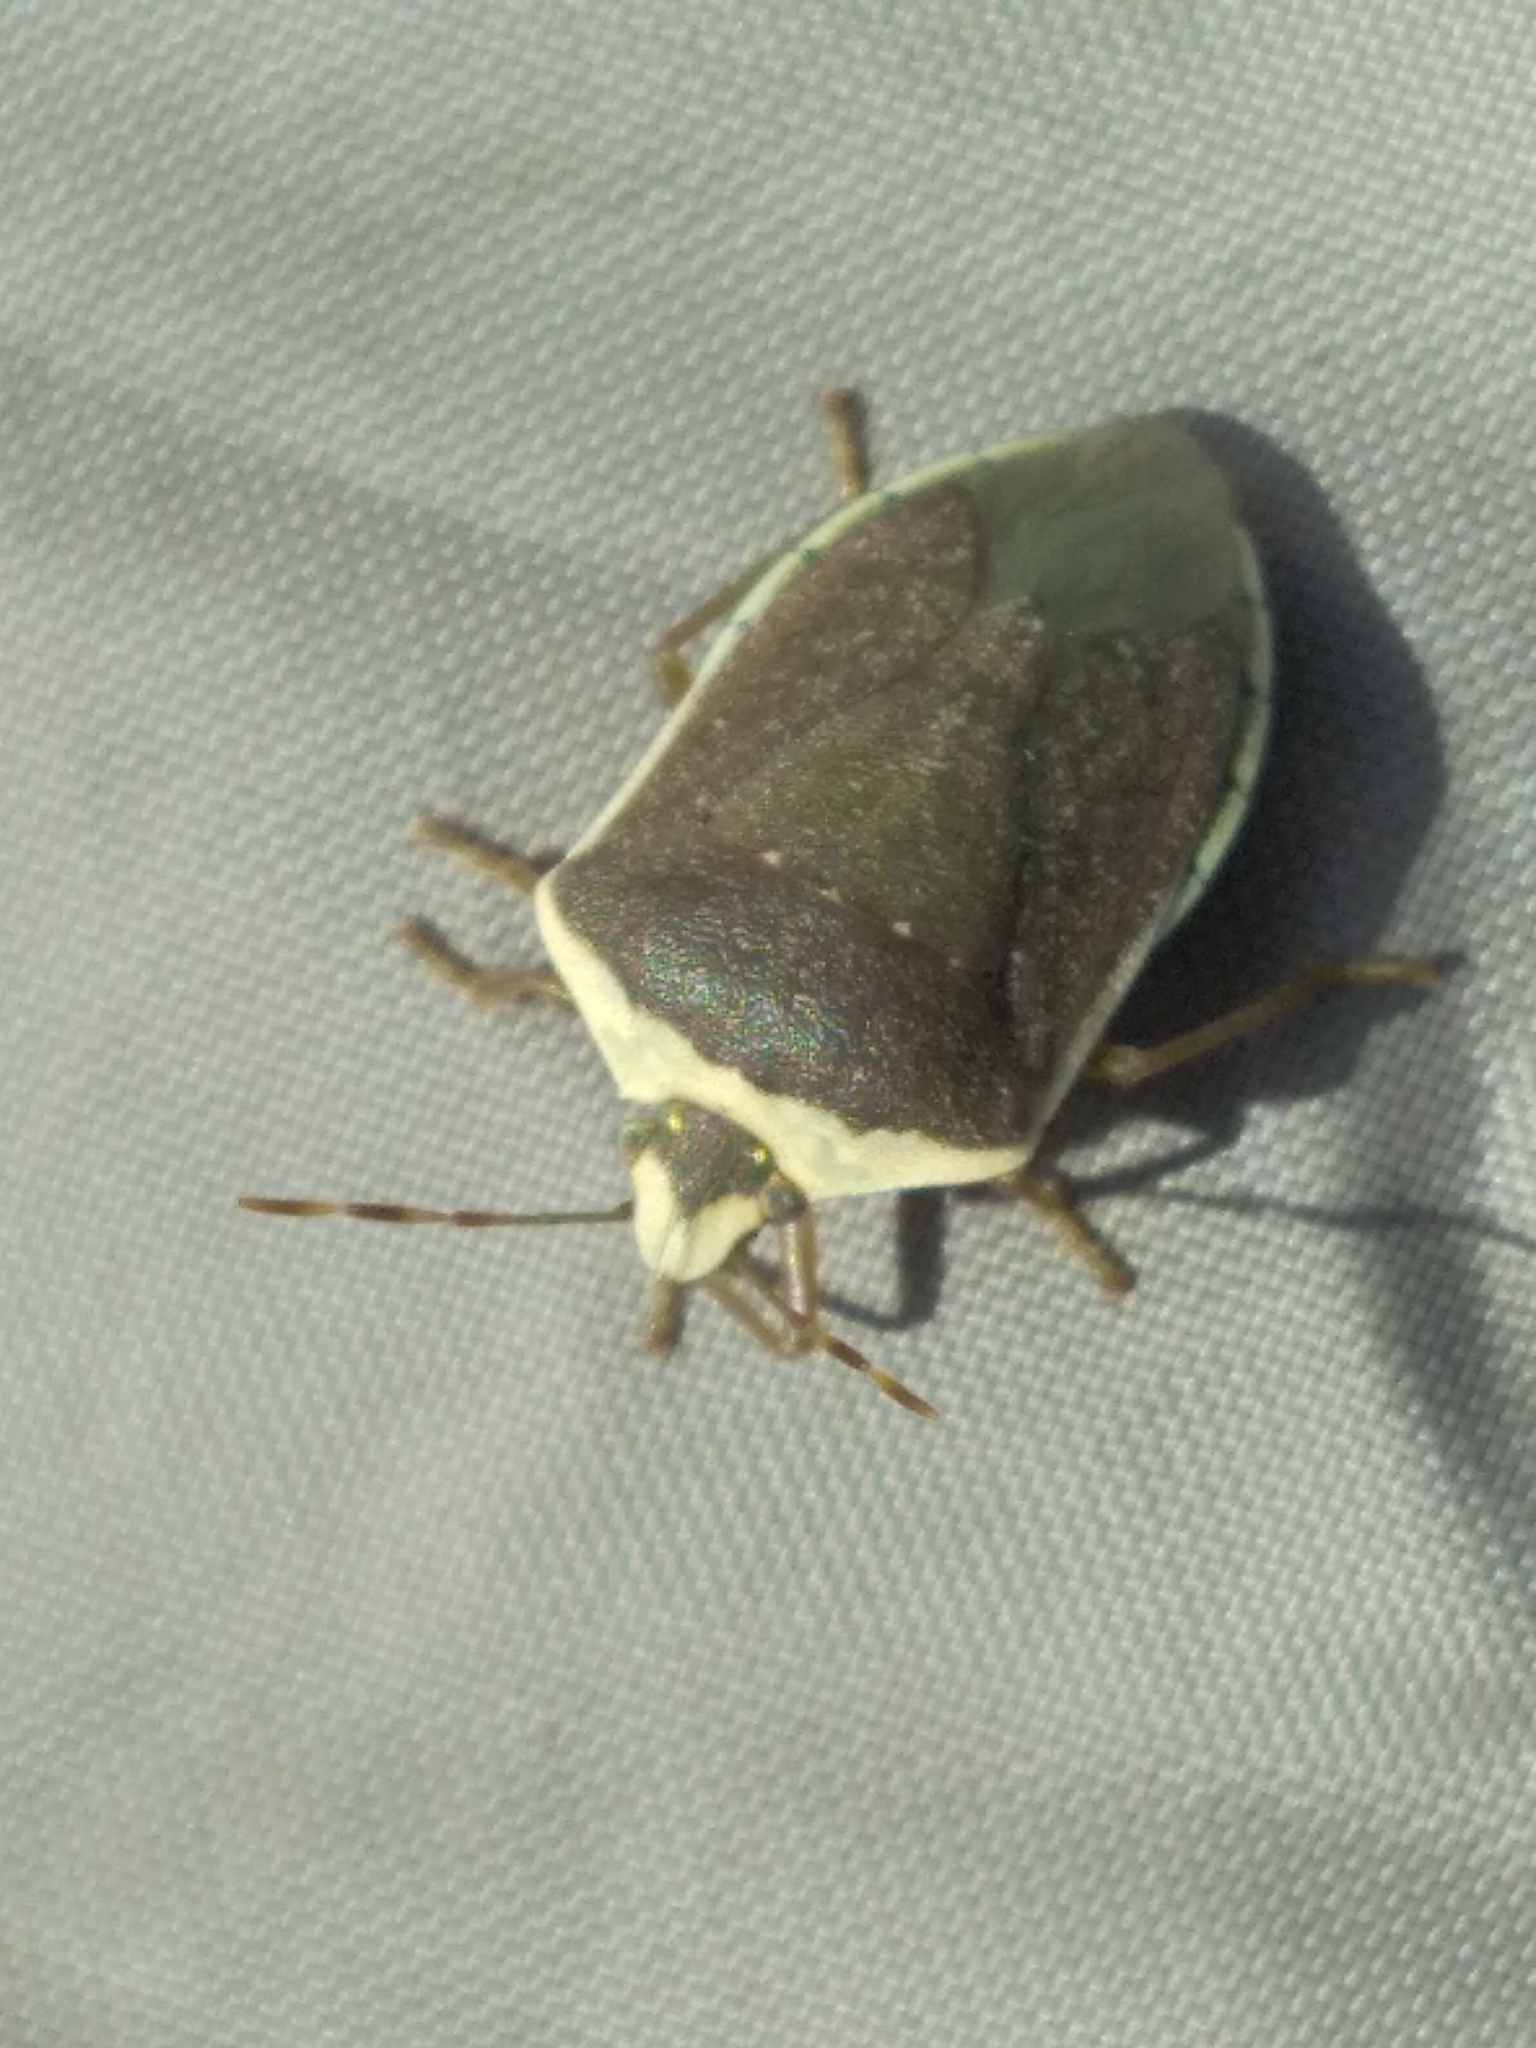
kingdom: Animalia
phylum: Arthropoda
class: Insecta
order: Hemiptera
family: Pentatomidae
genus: Nezara
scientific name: Nezara viridula
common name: Southern green stink bug
